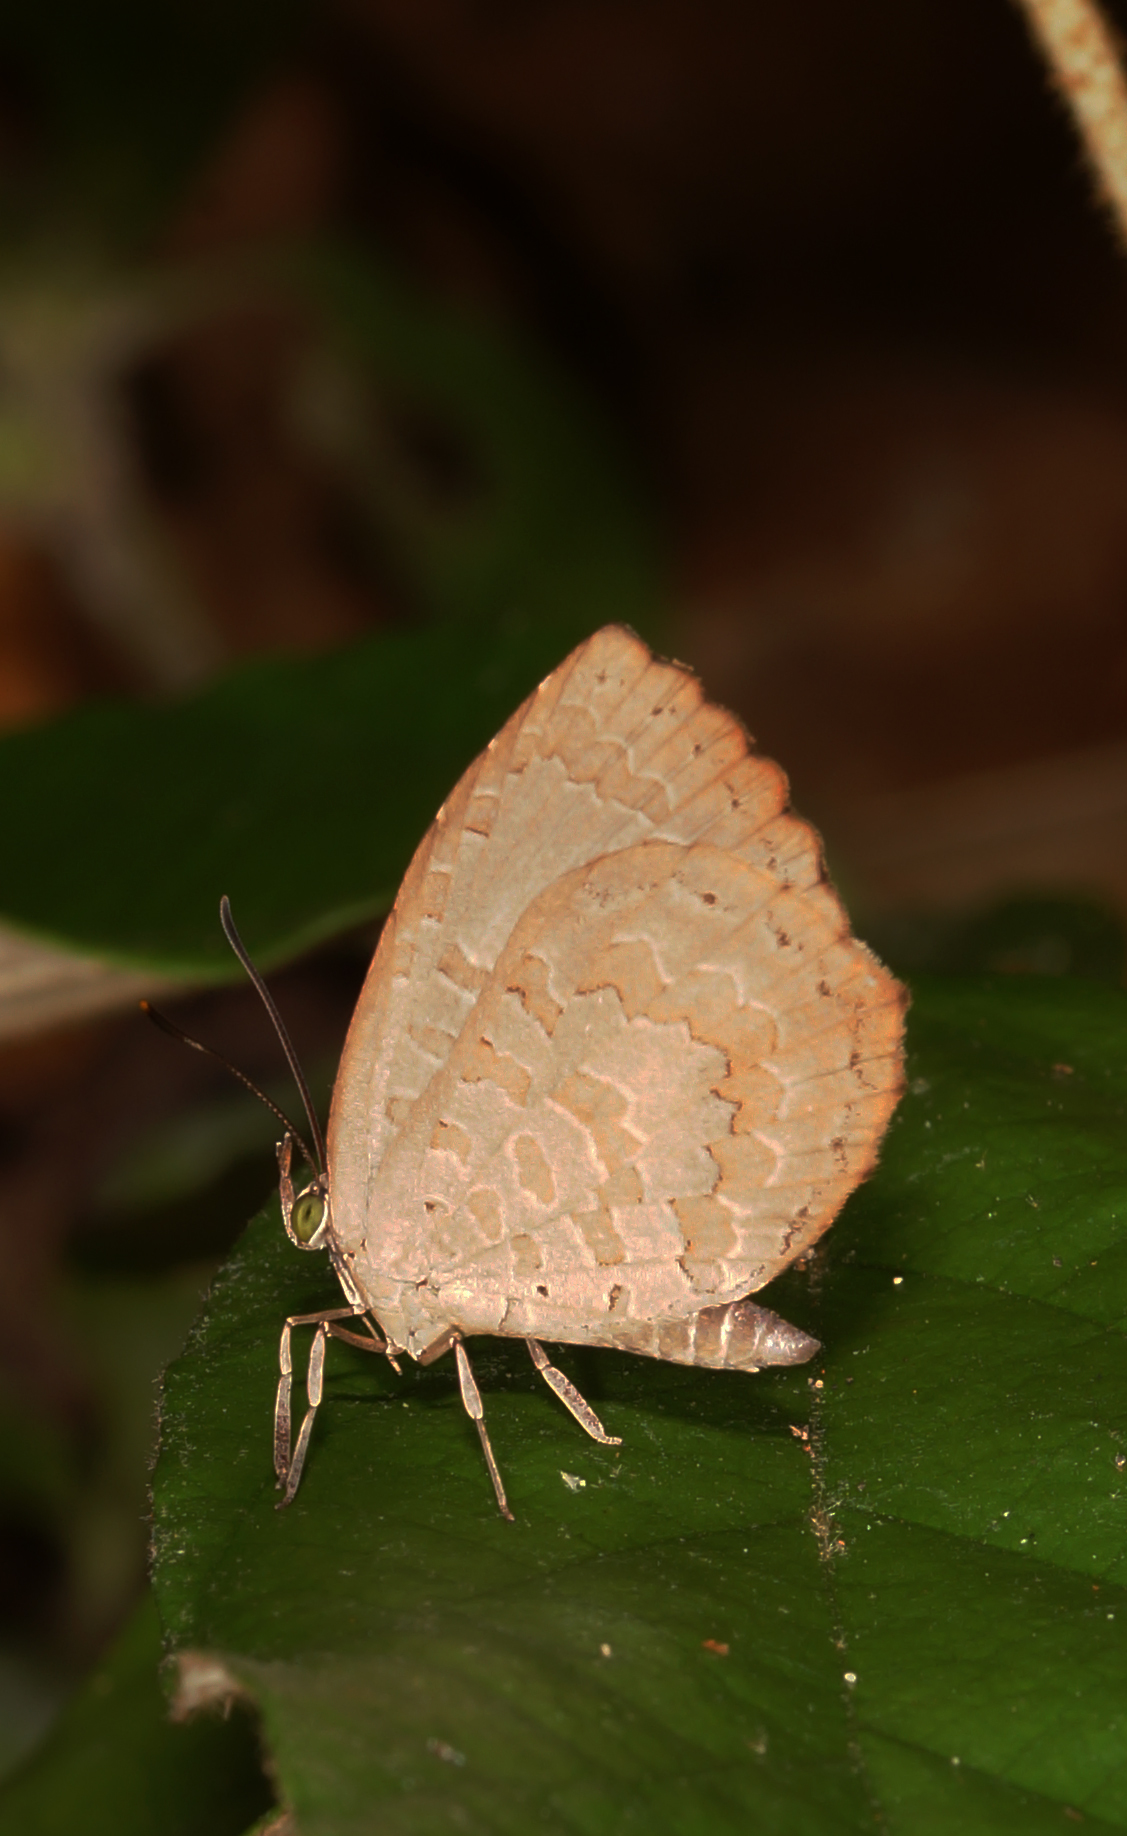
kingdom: Animalia
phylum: Arthropoda
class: Insecta
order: Lepidoptera
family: Lycaenidae
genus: Miletus
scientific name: Miletus chinensis
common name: Common brownie
